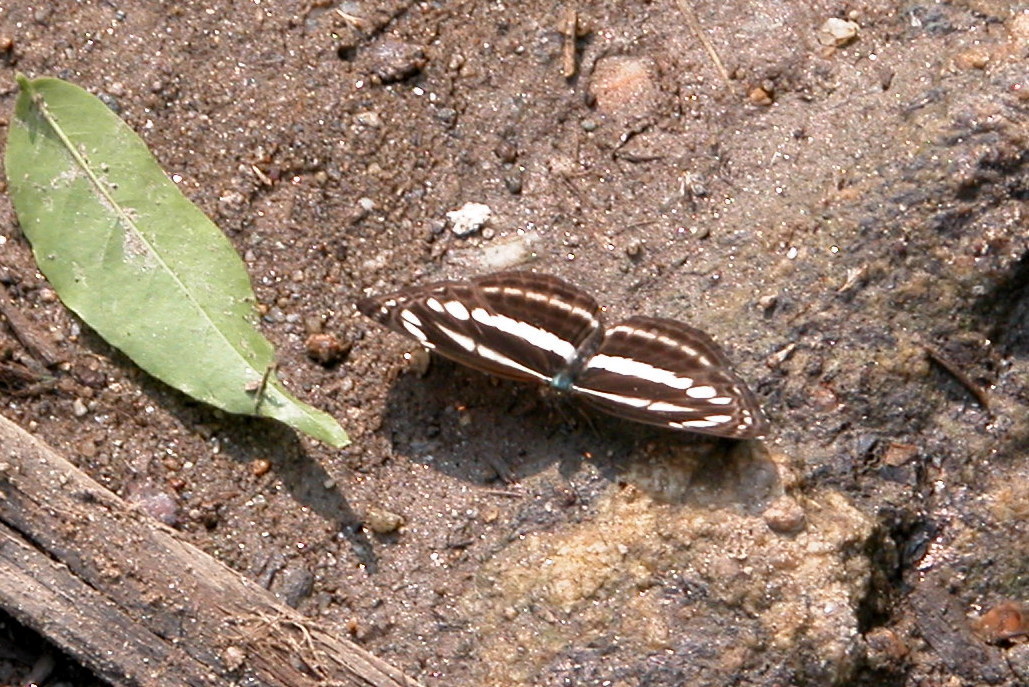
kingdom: Animalia
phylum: Arthropoda
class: Insecta
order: Lepidoptera
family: Nymphalidae
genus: Neptis
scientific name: Neptis clinia
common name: Southern sullied sailer
